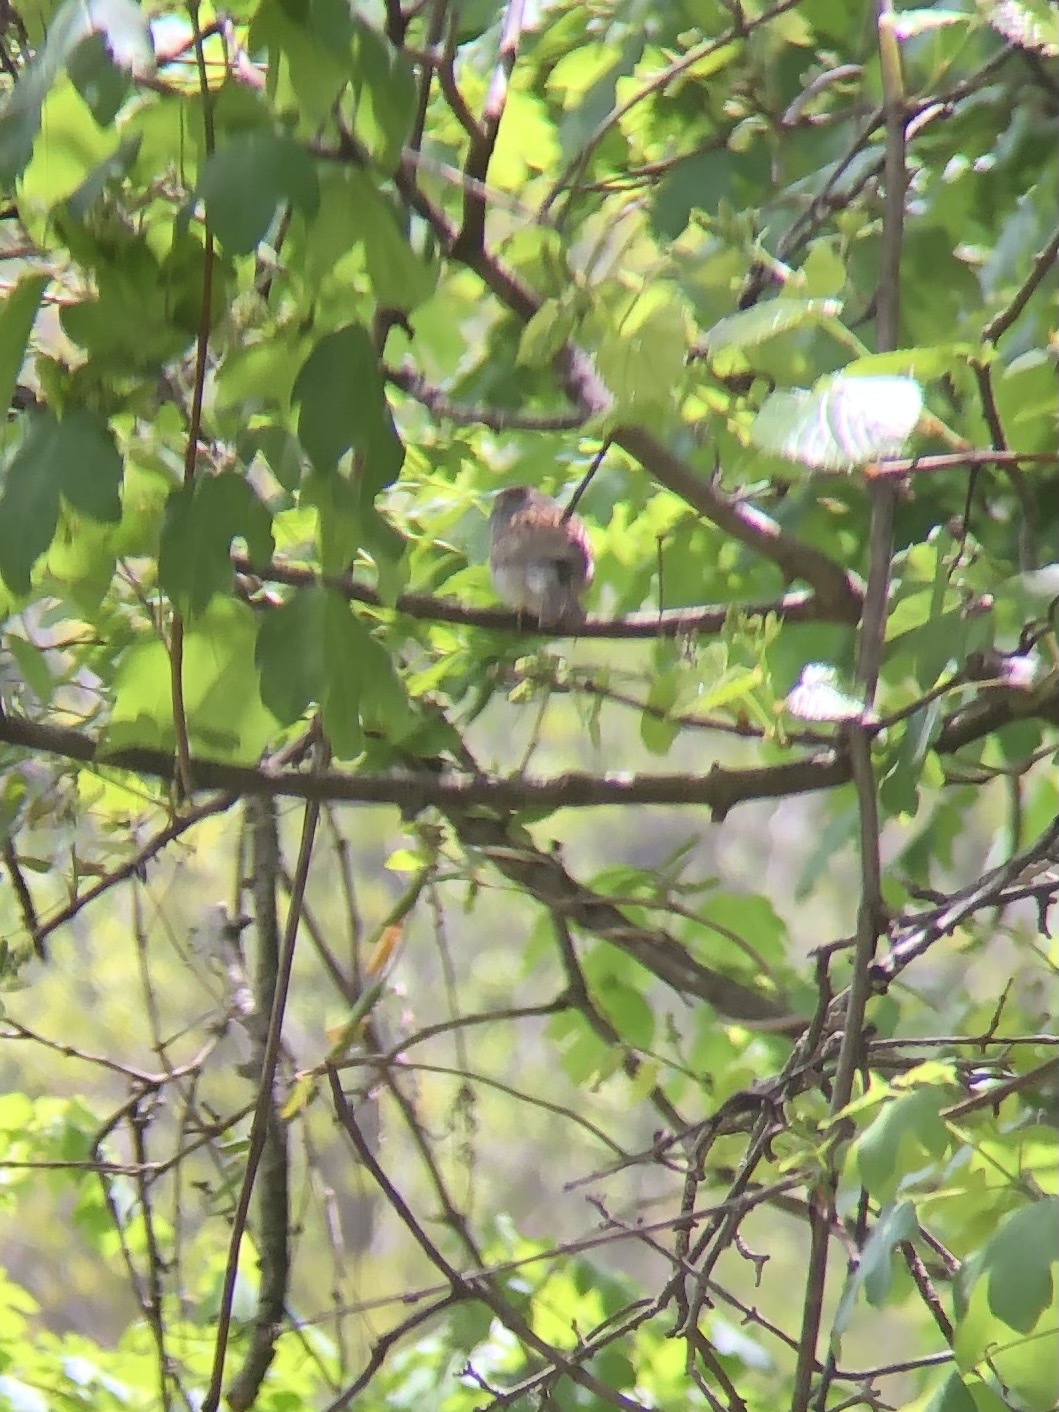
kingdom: Animalia
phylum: Chordata
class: Aves
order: Passeriformes
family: Passerellidae
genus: Spizella
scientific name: Spizella passerina
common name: Chipping sparrow
